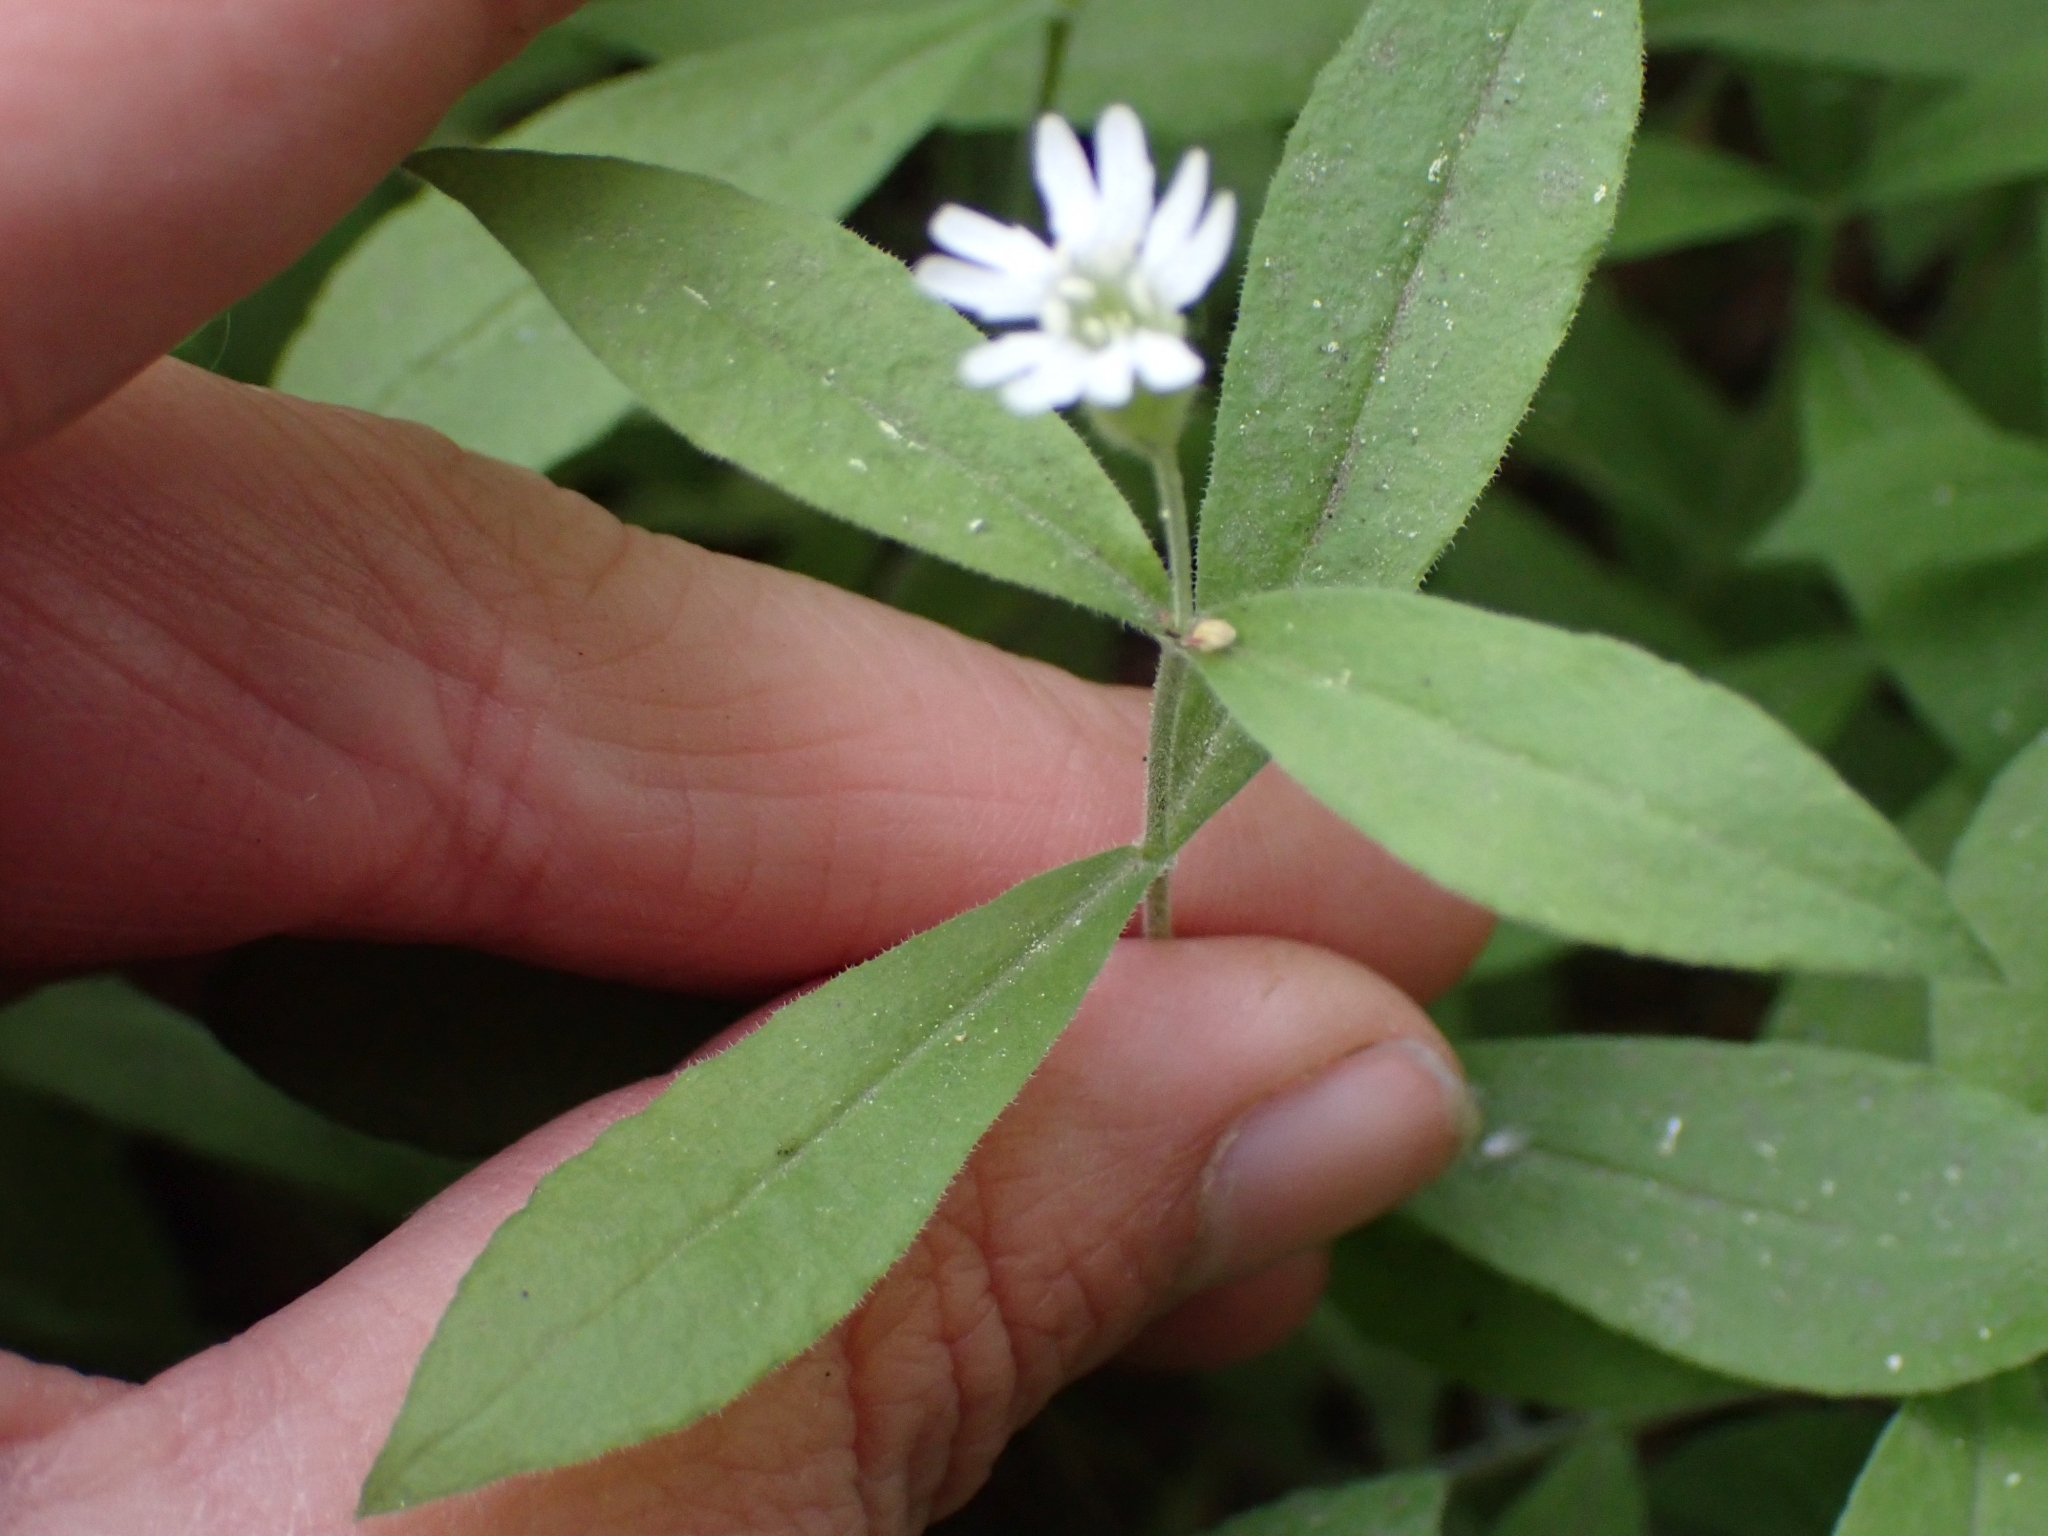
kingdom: Plantae
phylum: Tracheophyta
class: Magnoliopsida
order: Caryophyllales
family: Caryophyllaceae
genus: Silene
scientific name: Silene menziesii
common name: Menzies's catchfly
